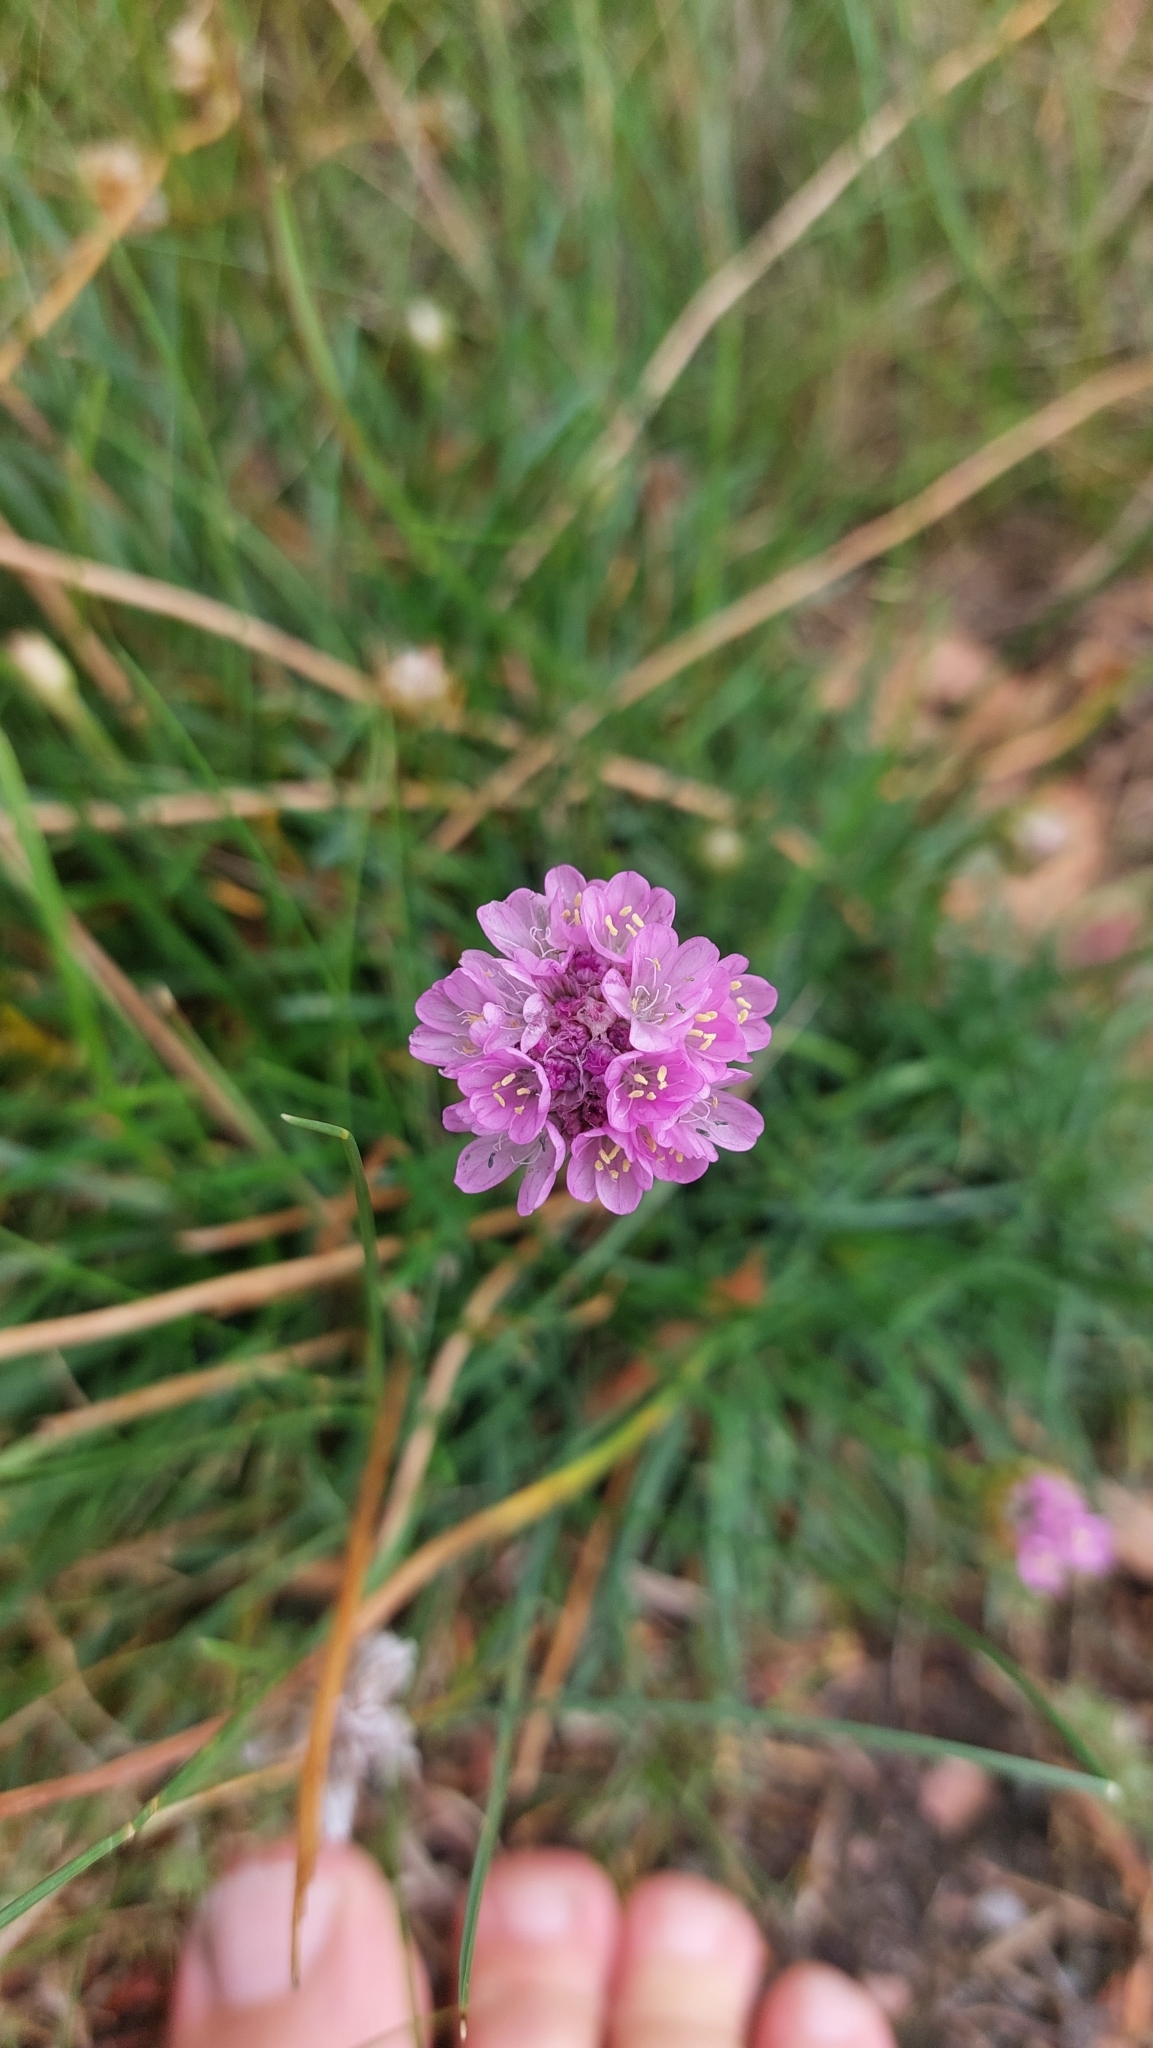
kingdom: Plantae
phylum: Tracheophyta
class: Magnoliopsida
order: Caryophyllales
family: Plumbaginaceae
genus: Armeria
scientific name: Armeria maritima
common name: Thrift
